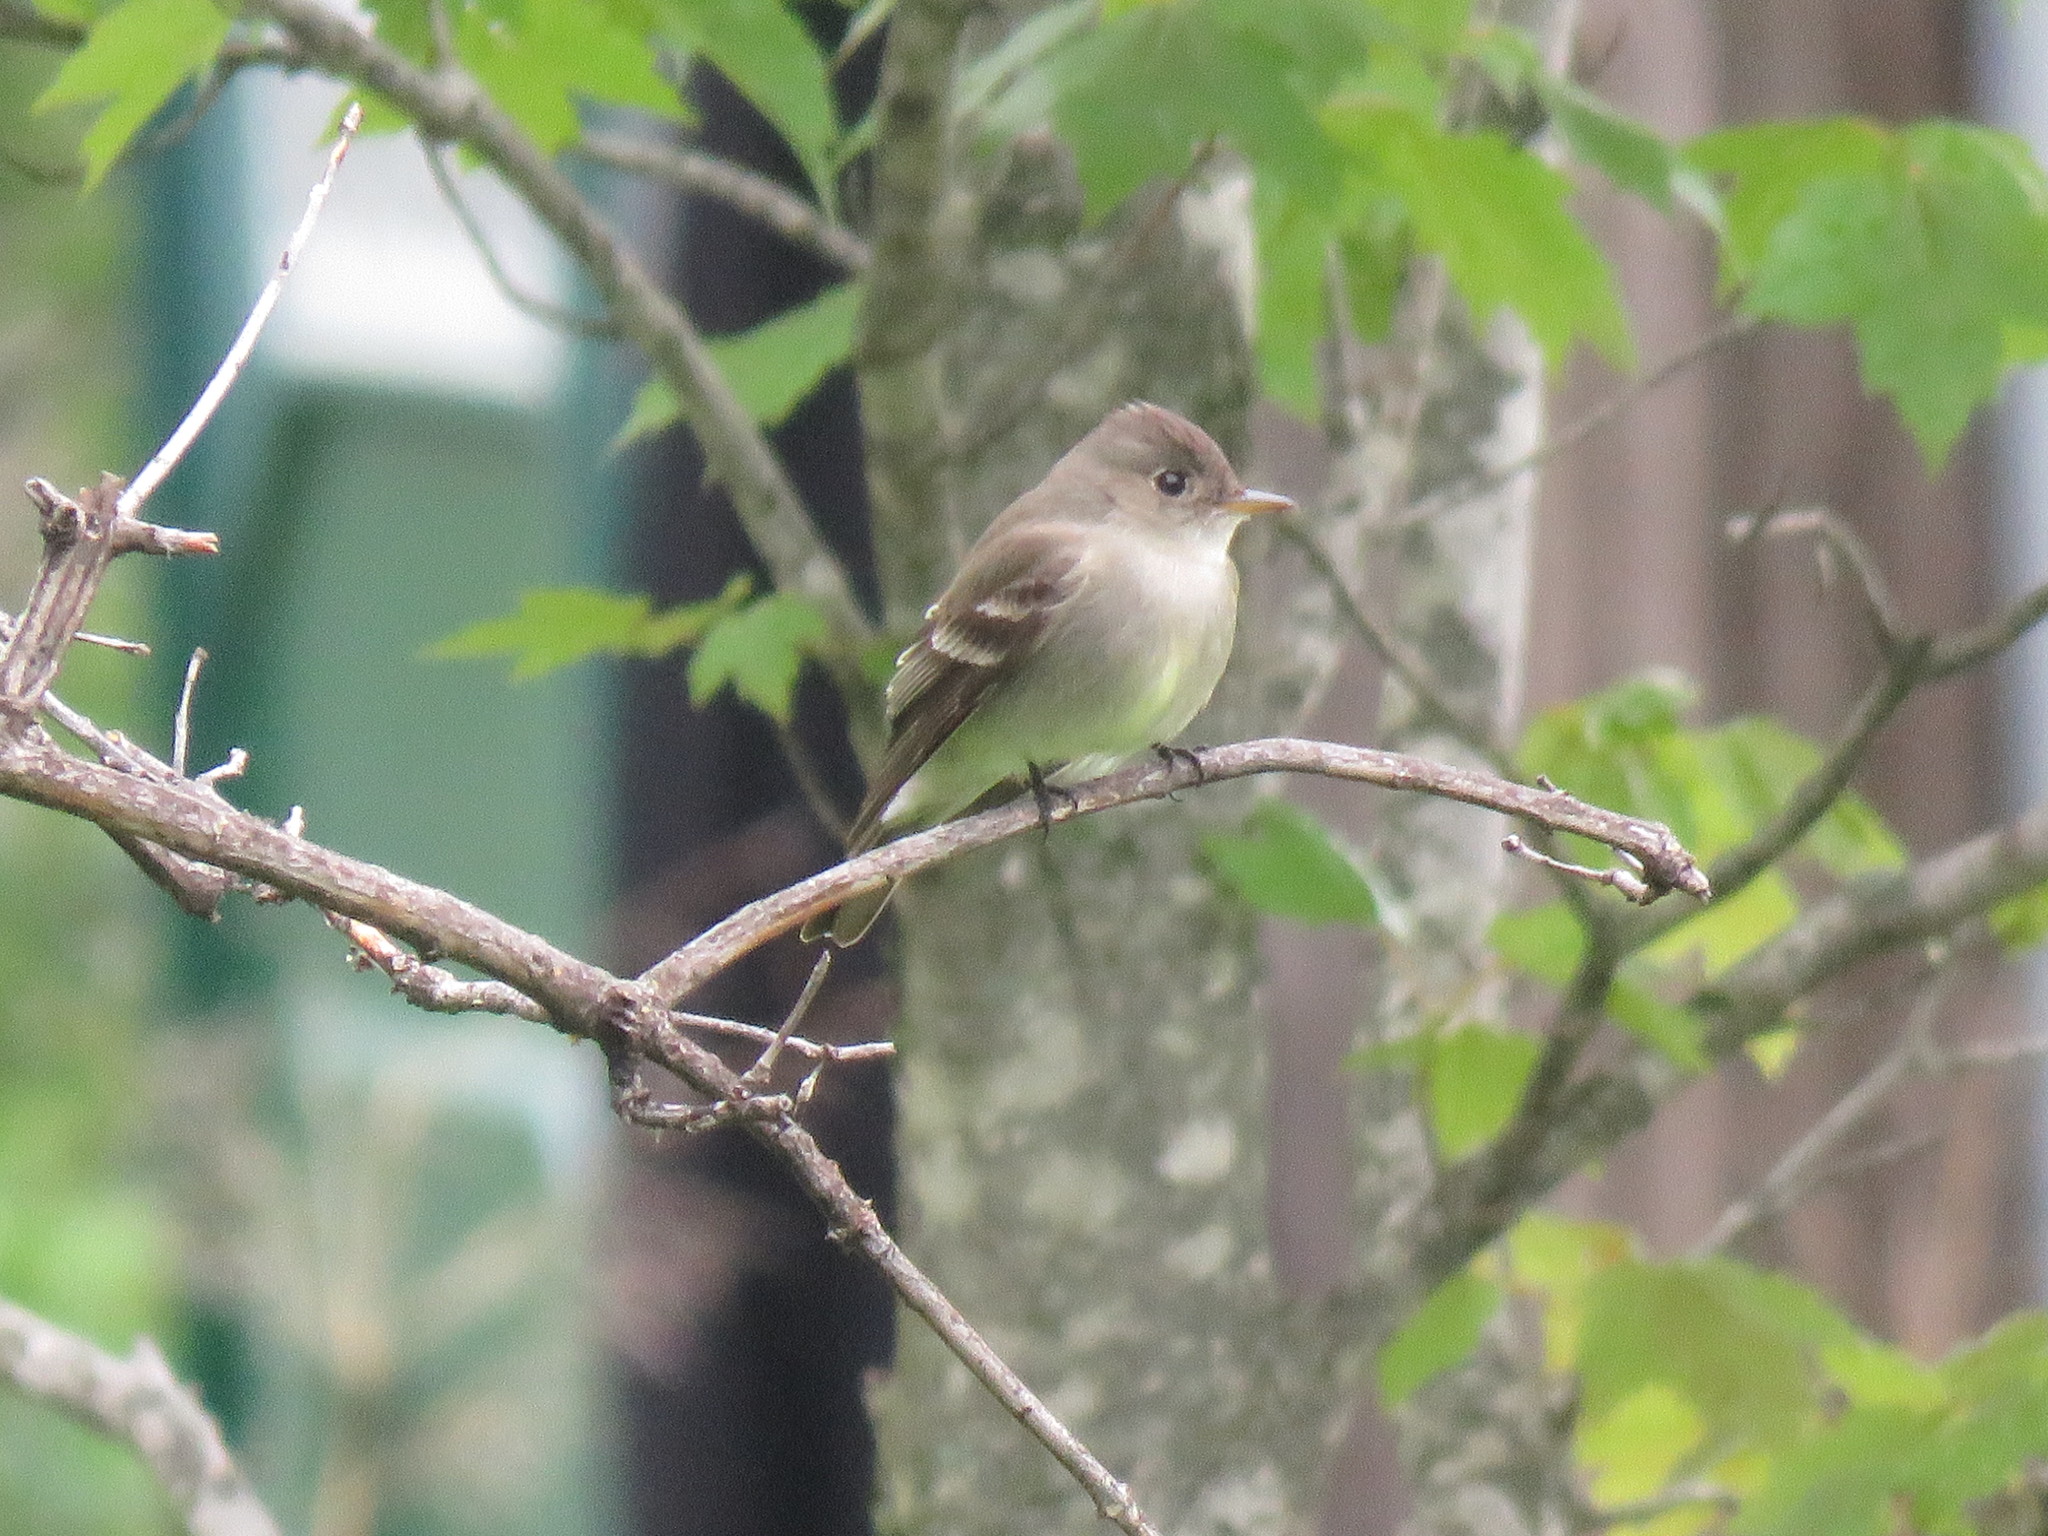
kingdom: Animalia
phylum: Chordata
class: Aves
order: Passeriformes
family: Tyrannidae
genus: Contopus
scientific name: Contopus virens
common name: Eastern wood-pewee
